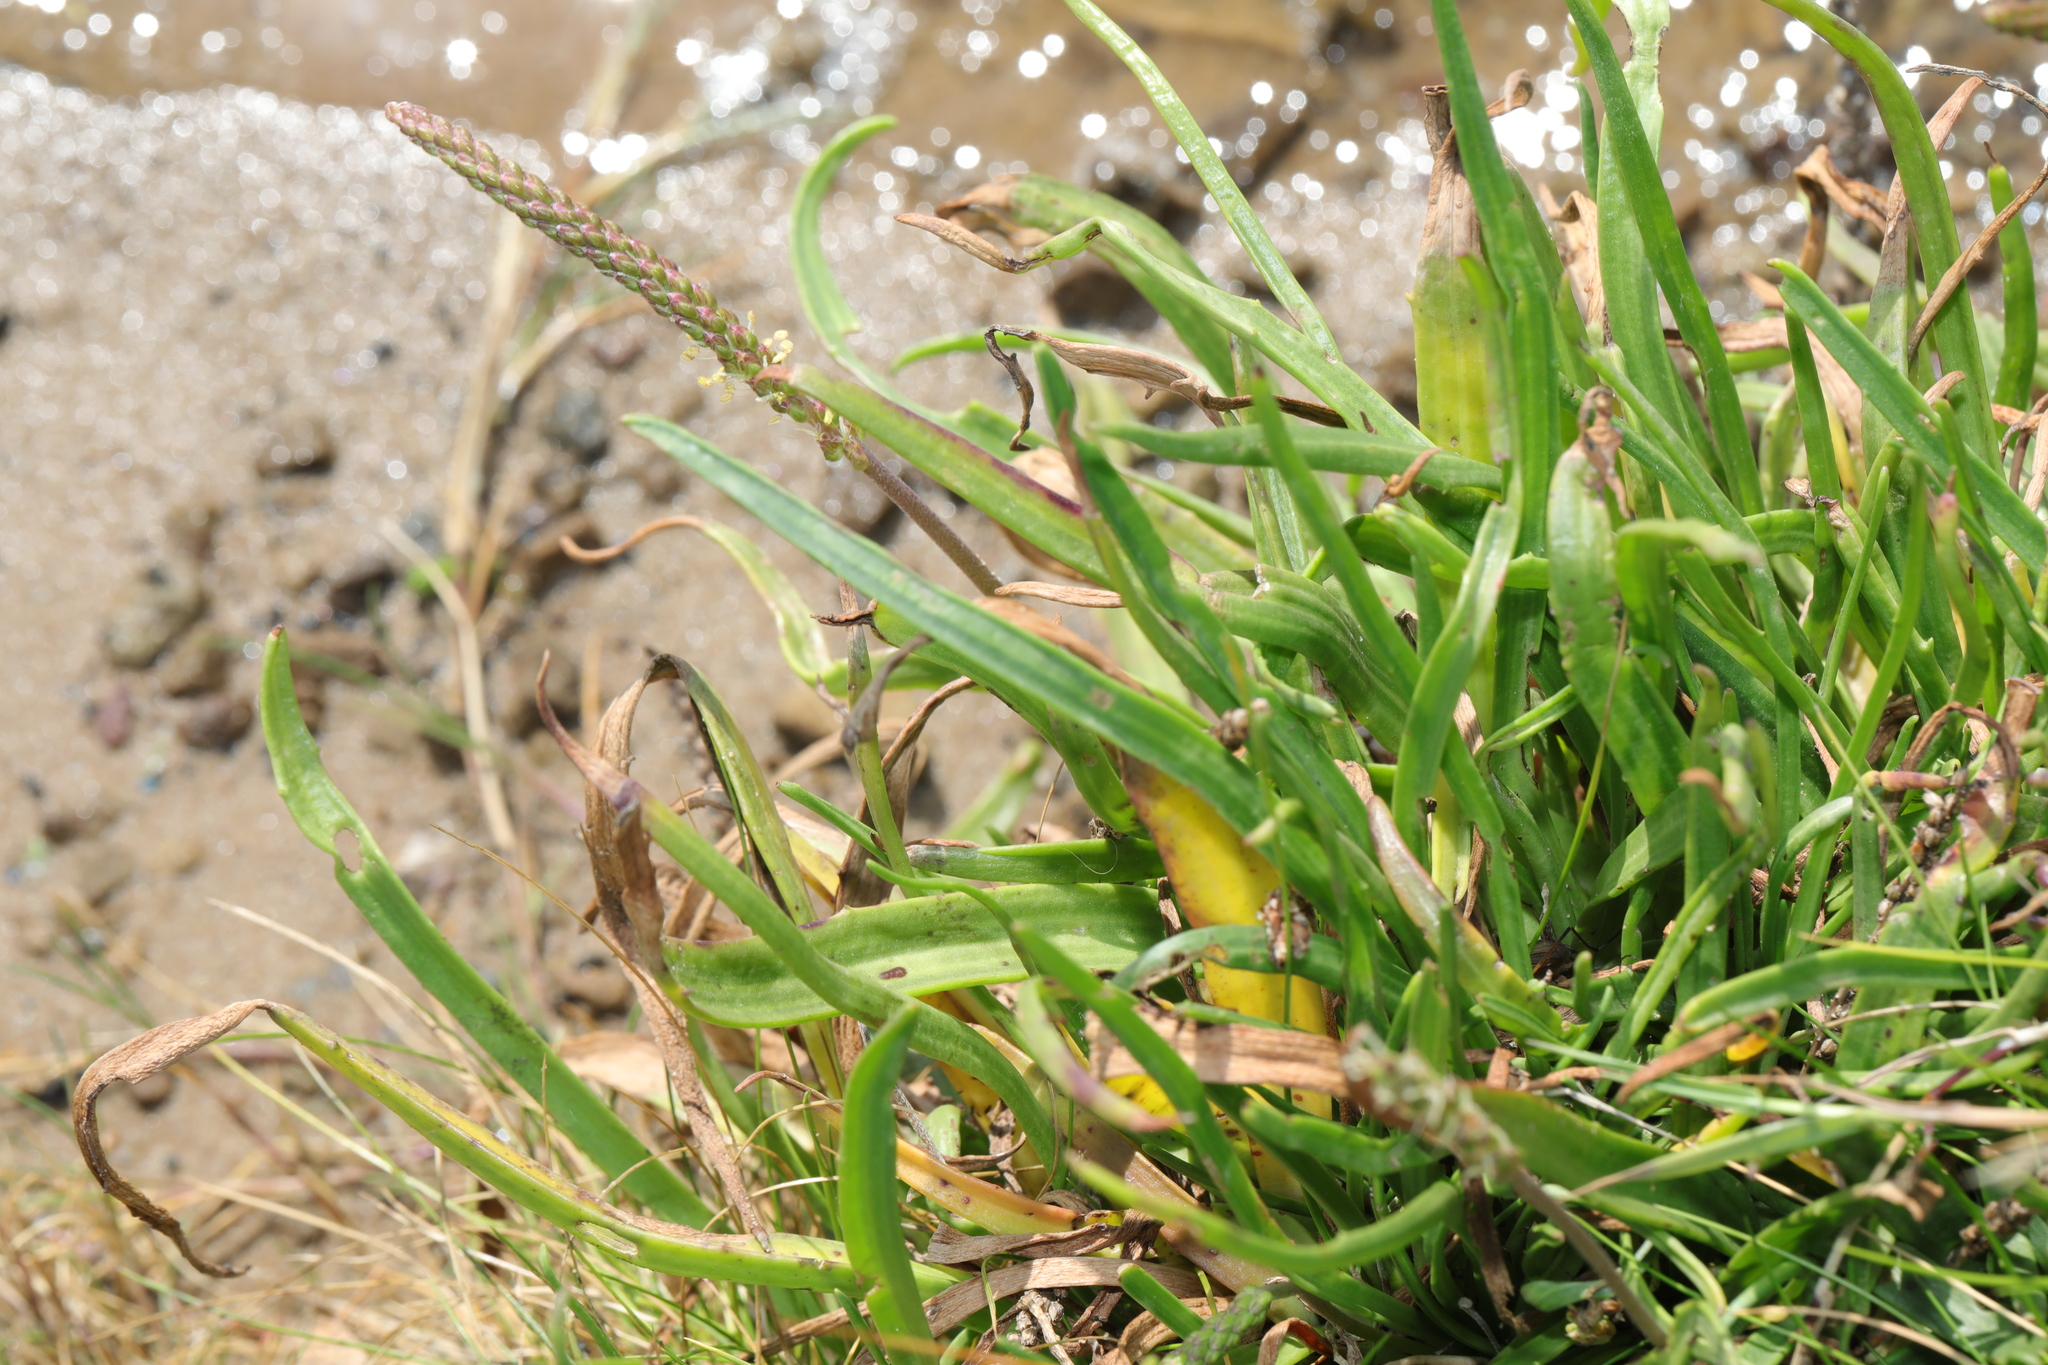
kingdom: Plantae
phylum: Tracheophyta
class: Magnoliopsida
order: Lamiales
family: Plantaginaceae
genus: Plantago
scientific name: Plantago maritima
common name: Sea plantain
